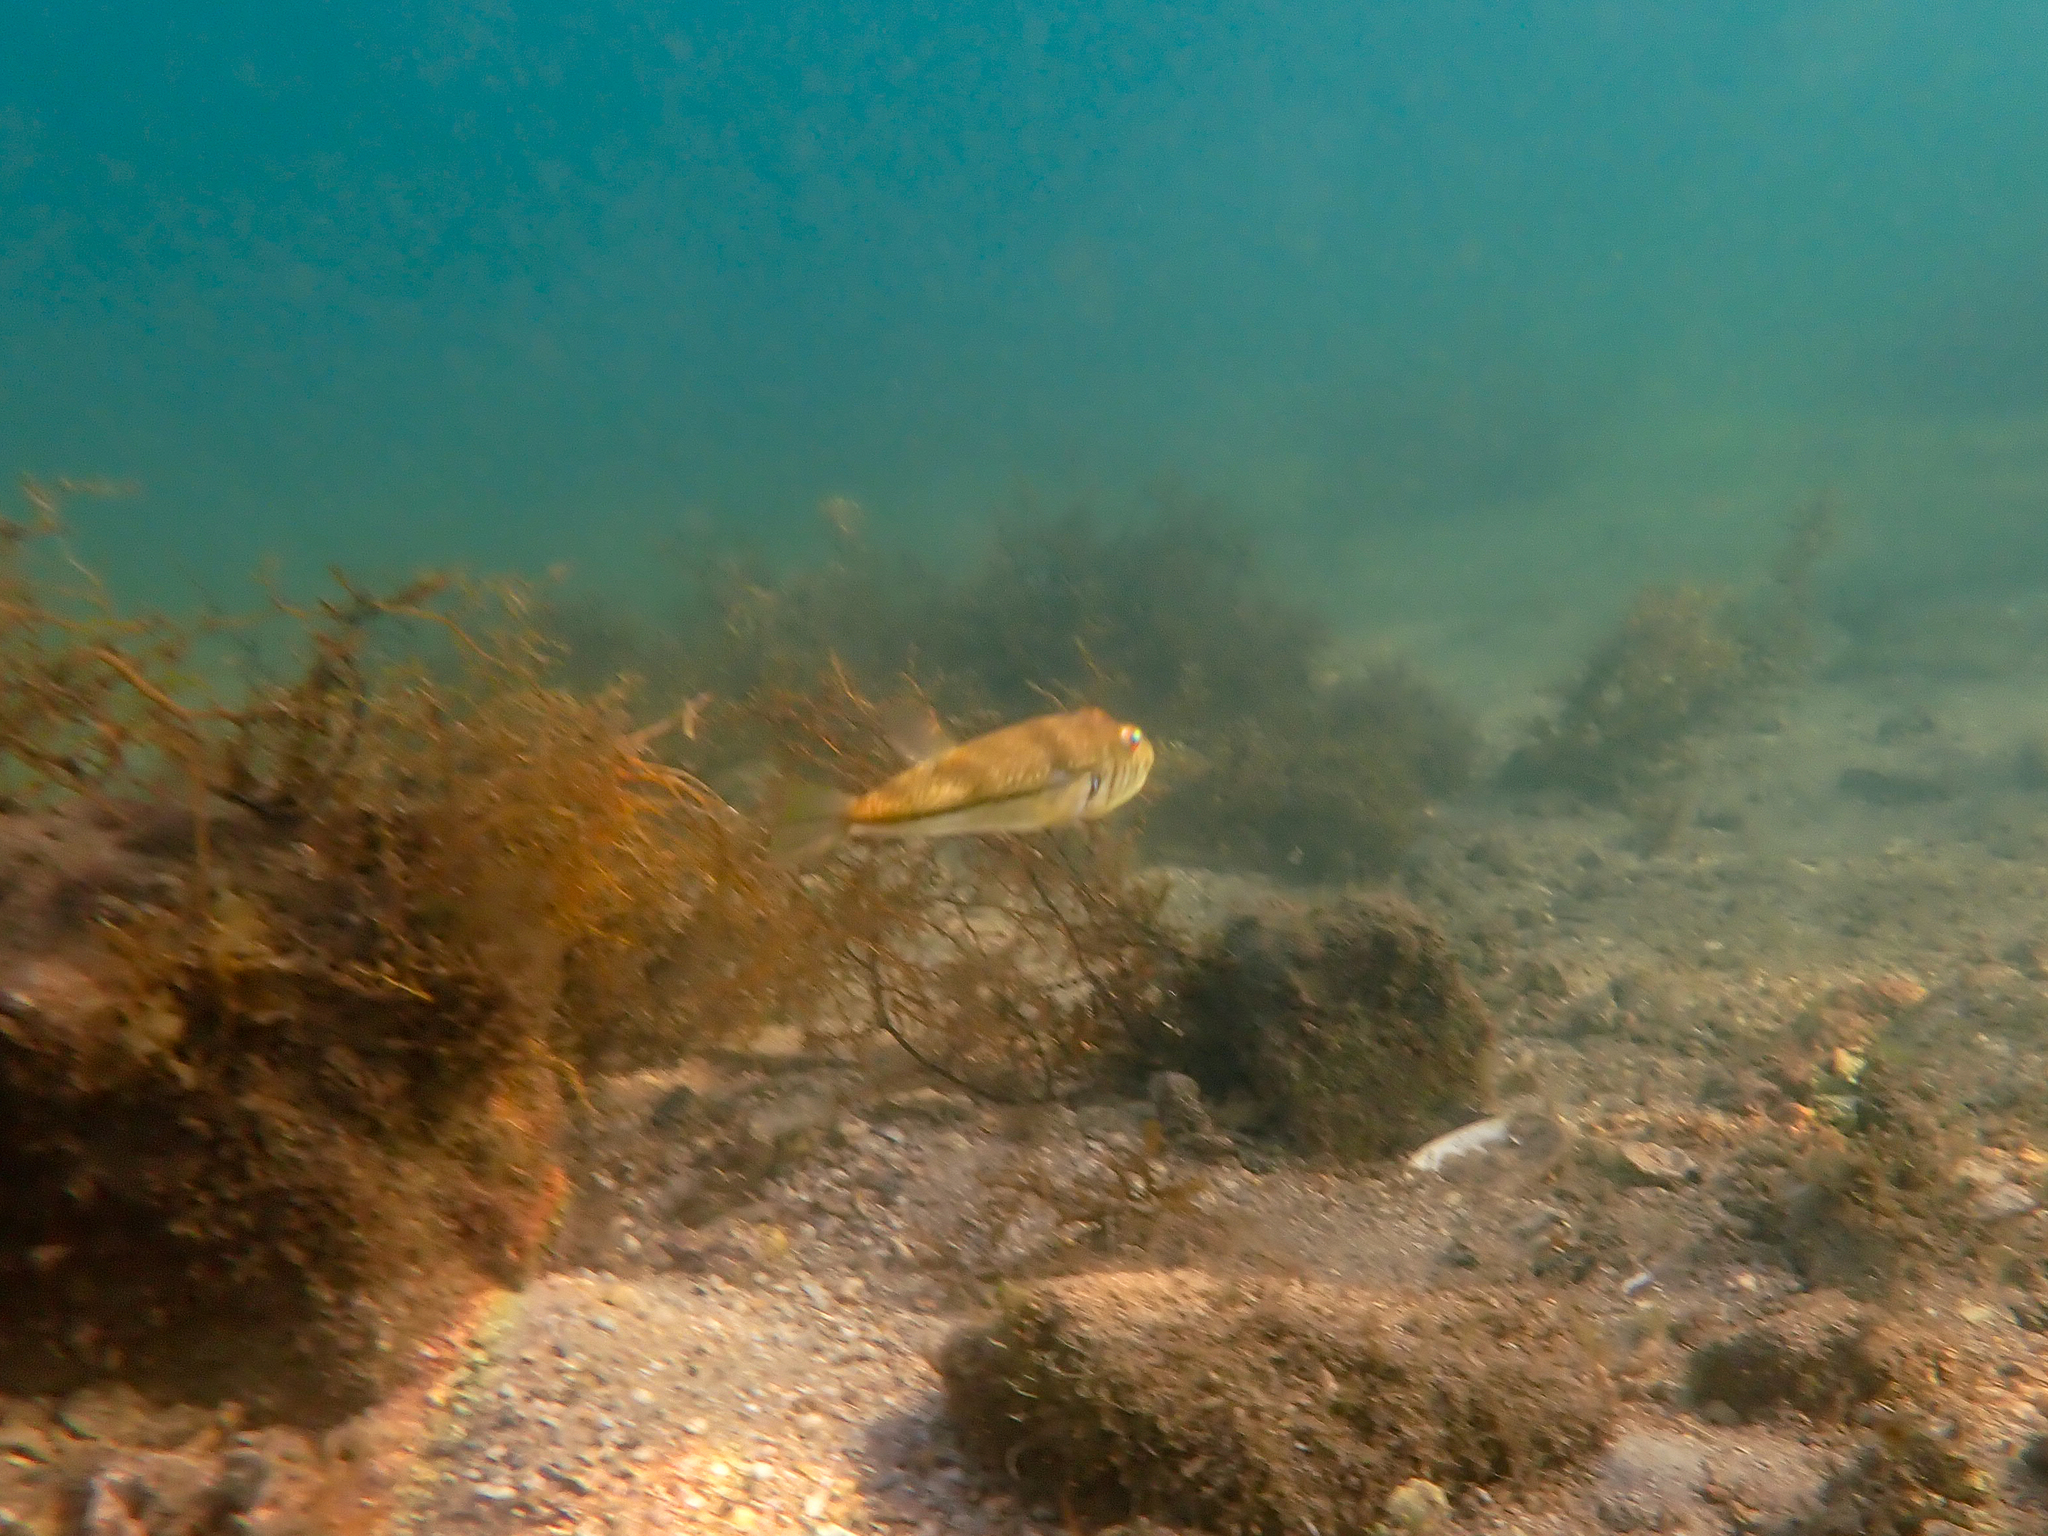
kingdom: Animalia
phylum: Chordata
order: Tetraodontiformes
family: Tetraodontidae
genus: Torquigener
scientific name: Torquigener pleurogramma
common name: Banded toadfish
